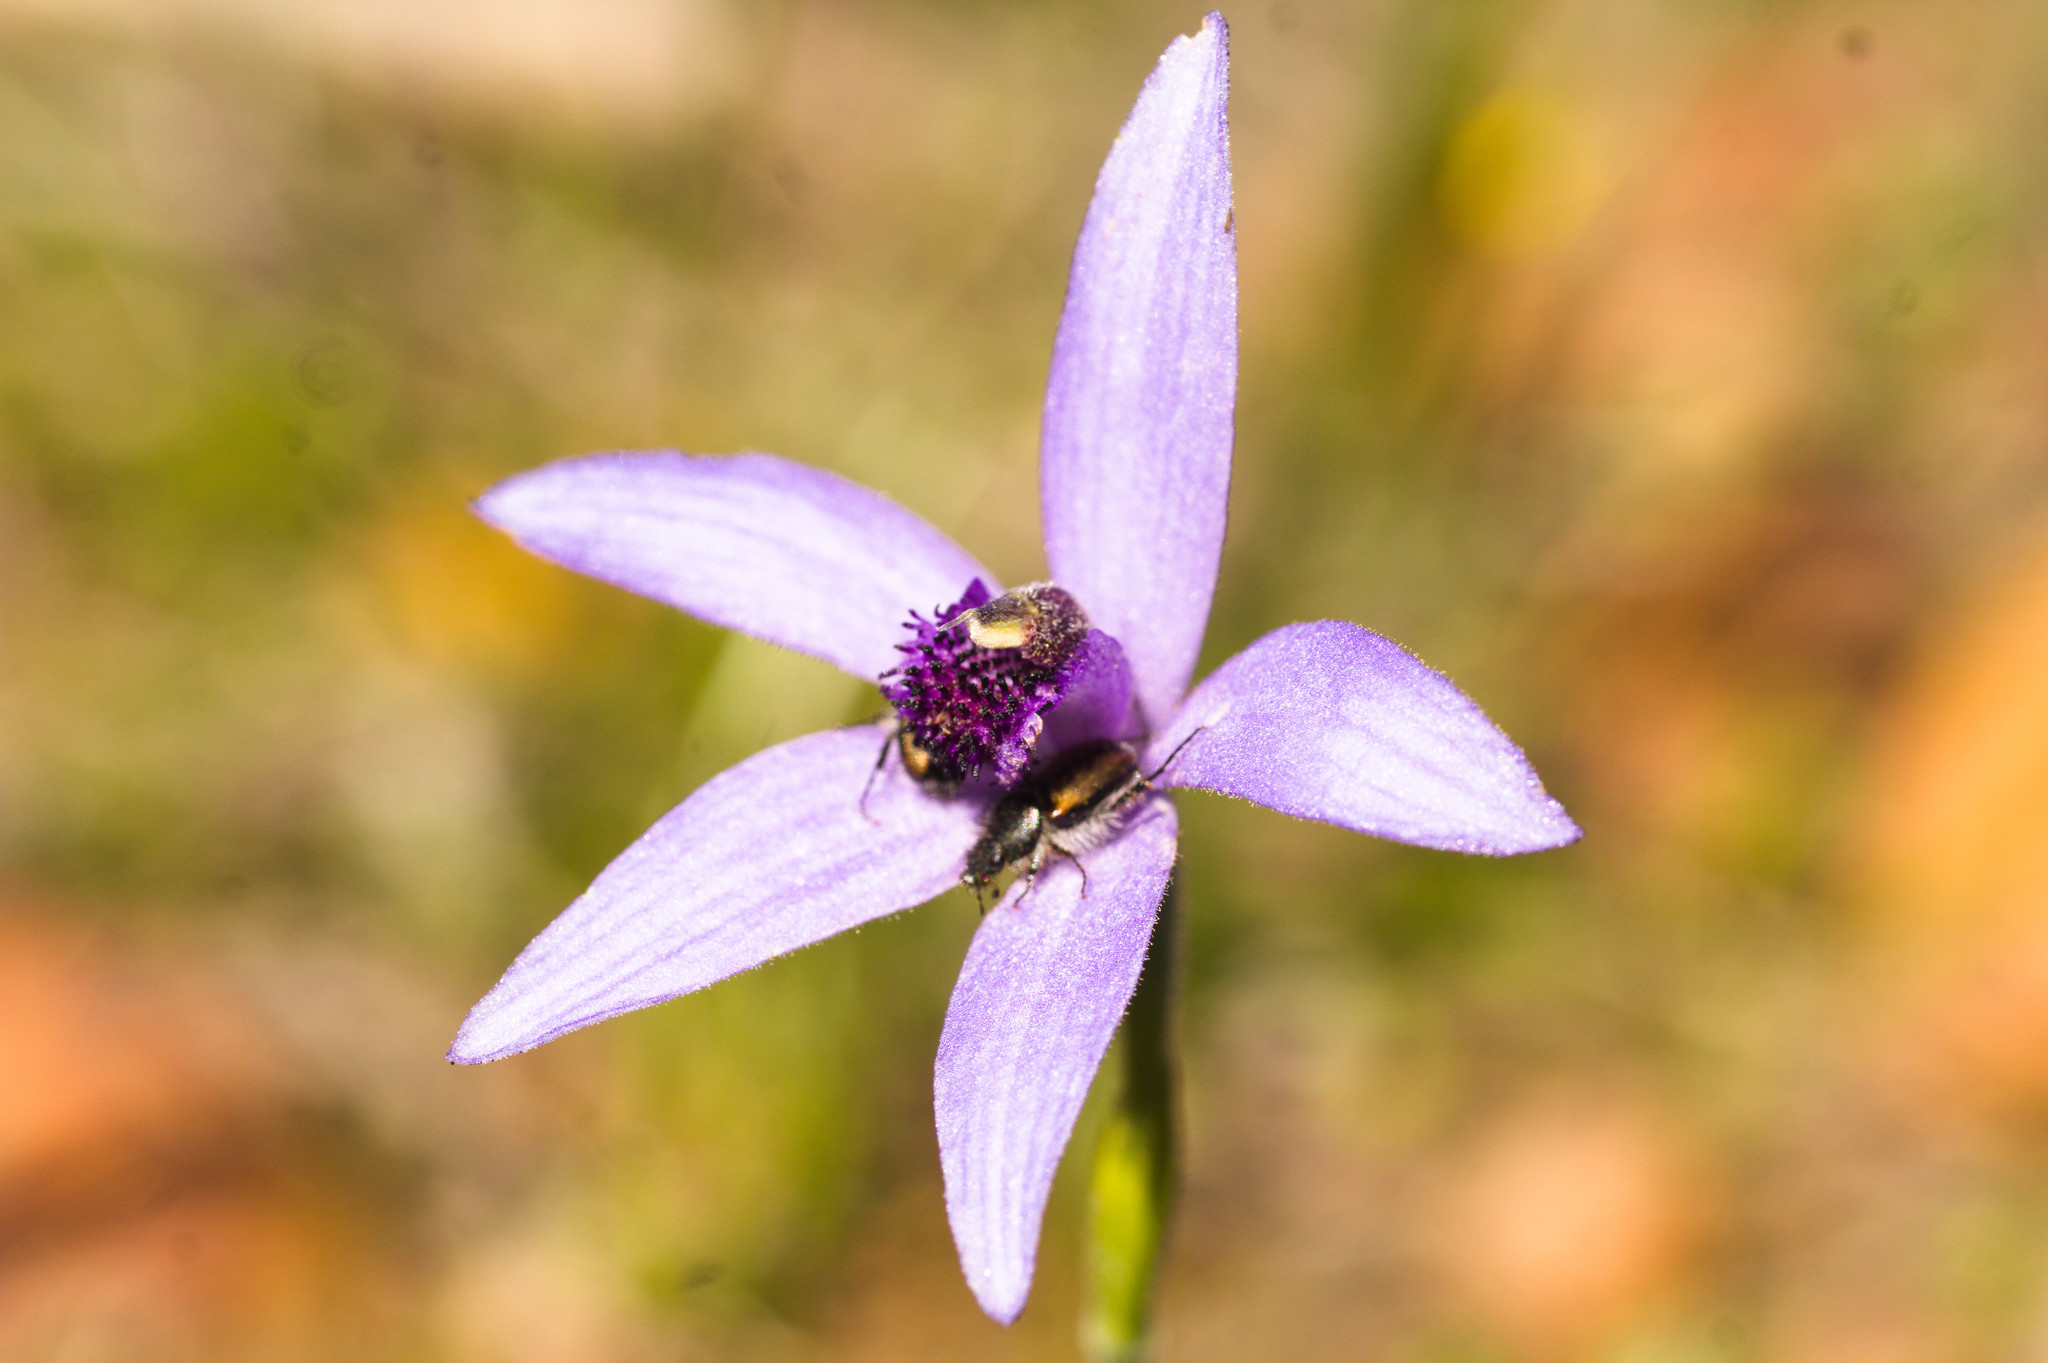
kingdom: Plantae
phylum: Tracheophyta
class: Liliopsida
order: Asparagales
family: Orchidaceae
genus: Pheladenia
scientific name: Pheladenia deformis
